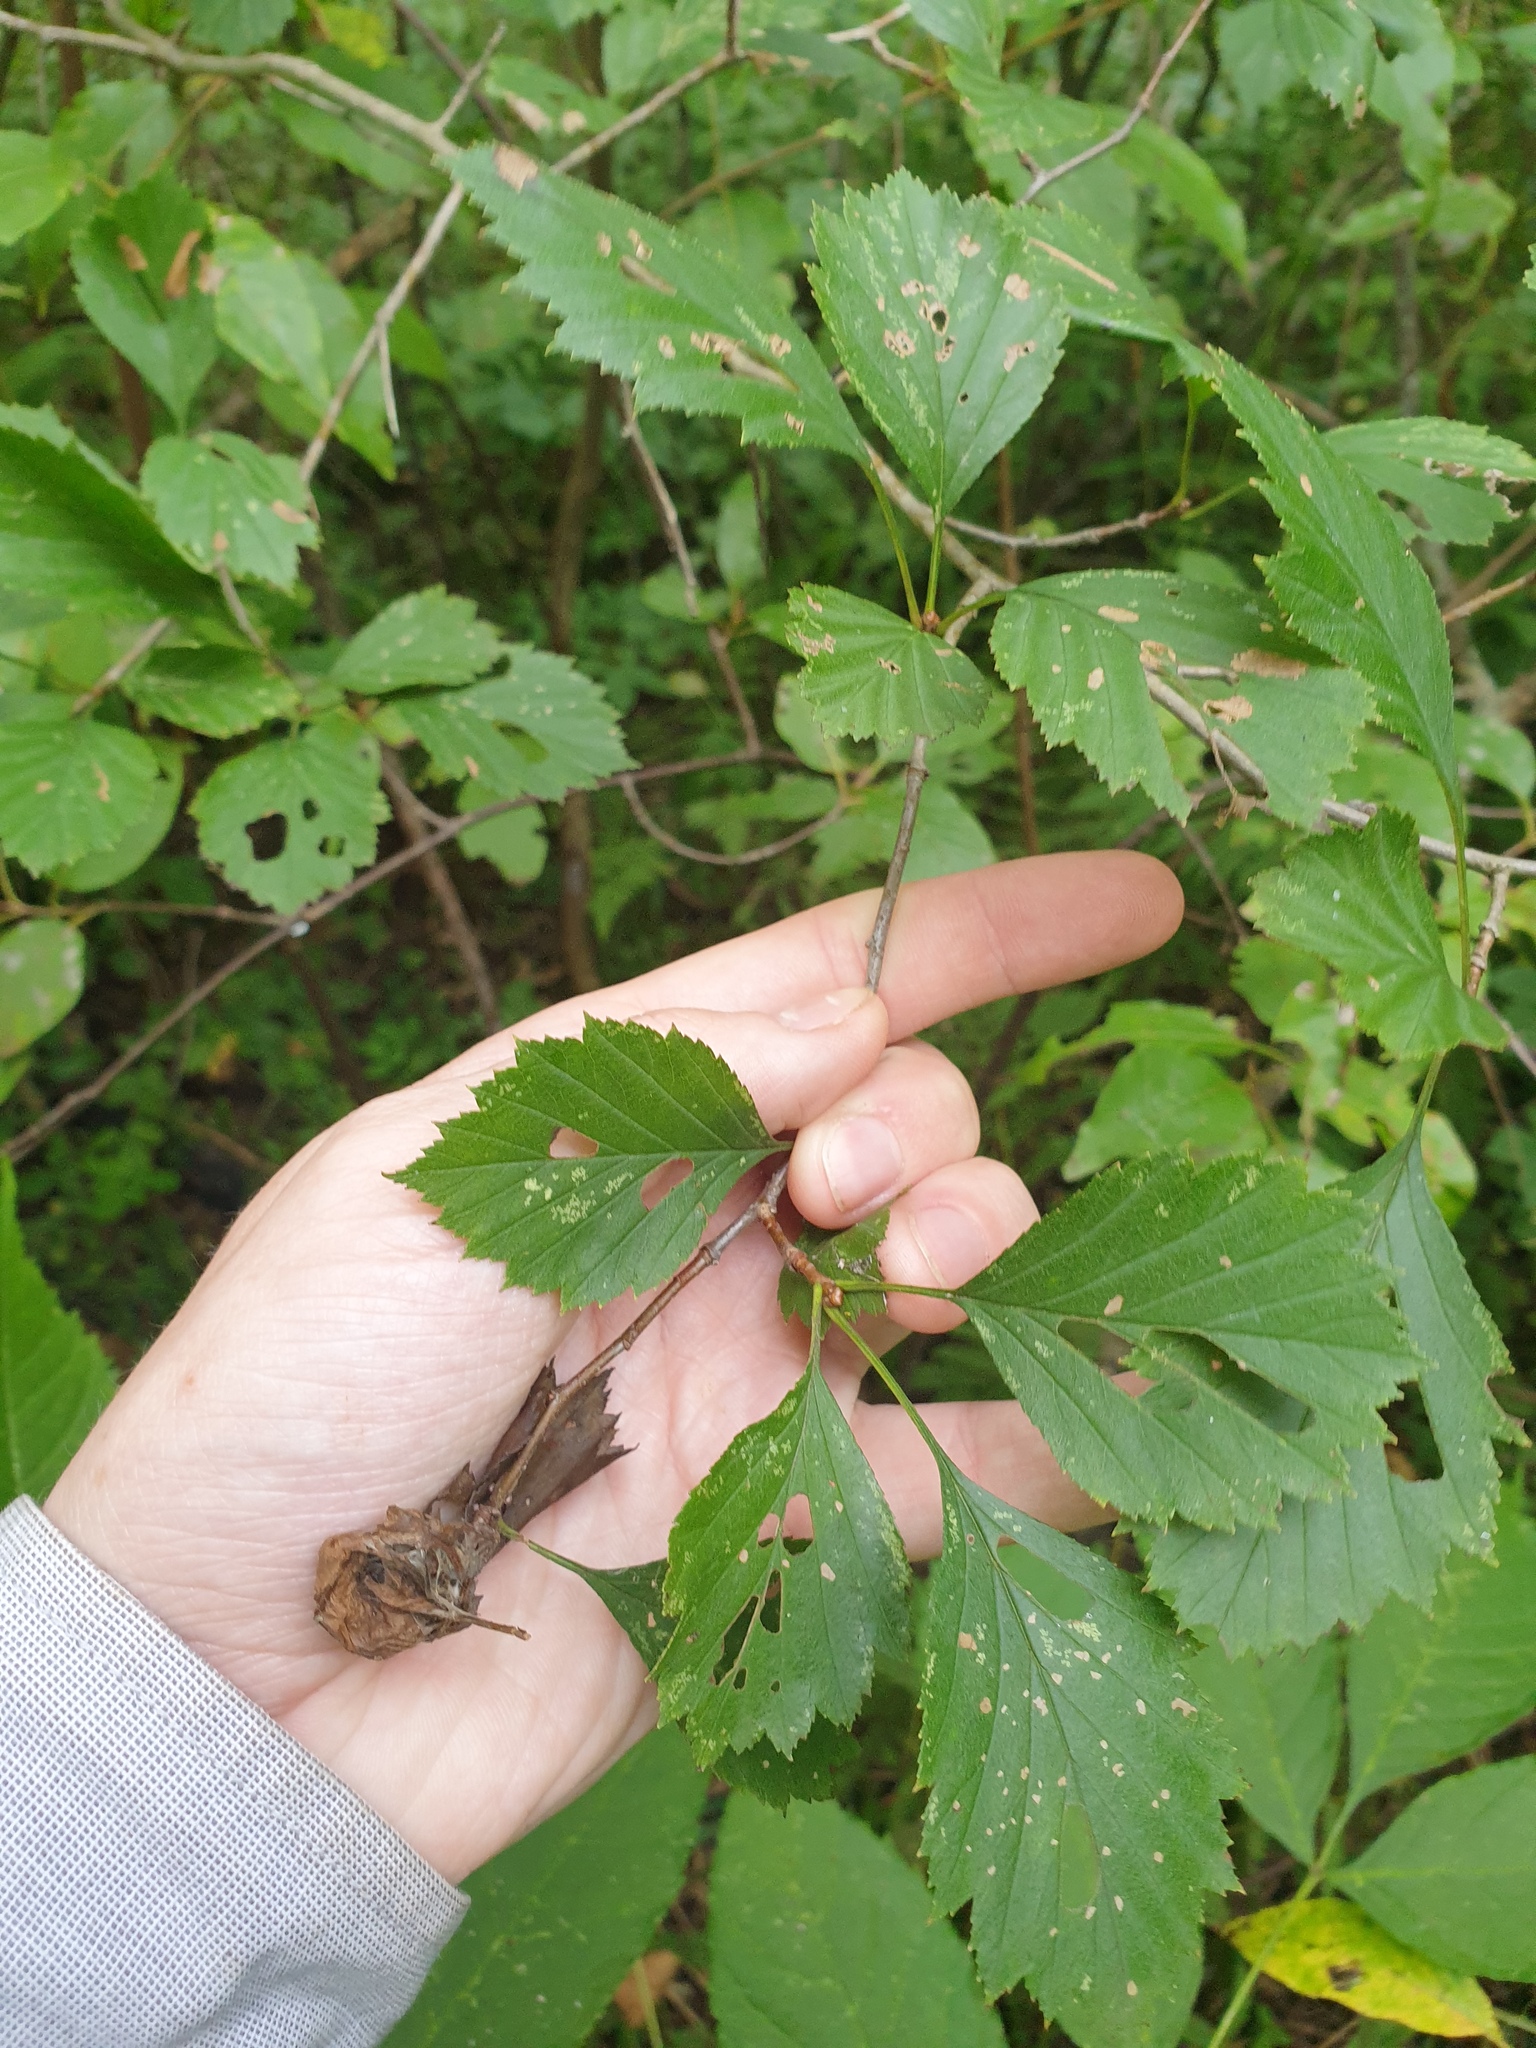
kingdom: Plantae
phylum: Tracheophyta
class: Magnoliopsida
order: Rosales
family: Rosaceae
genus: Crataegus
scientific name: Crataegus chrysocarpa
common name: Fire-berry hawthorn
